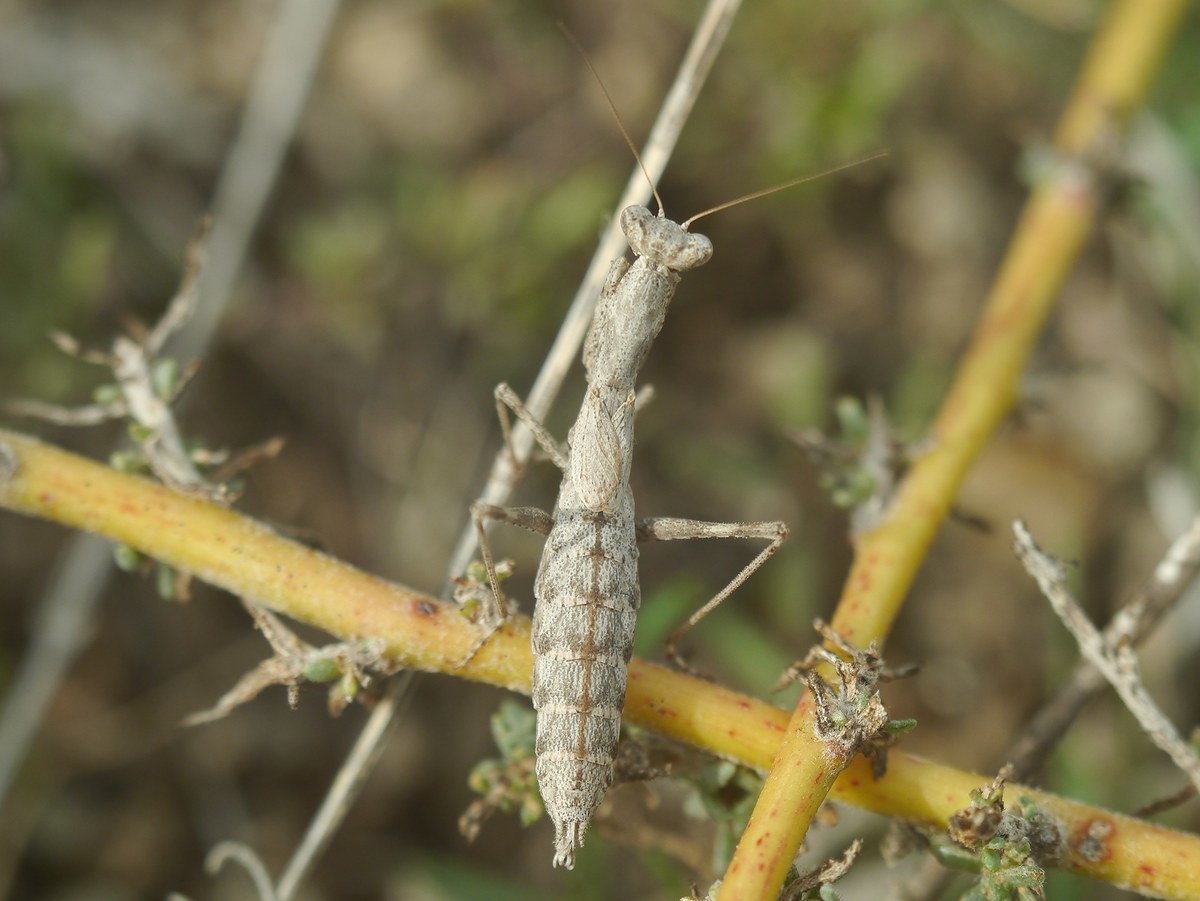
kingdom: Animalia
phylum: Arthropoda
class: Insecta
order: Mantodea
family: Amelidae
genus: Ameles
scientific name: Ameles heldreichi
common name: Heldreich's dwarf mantis
